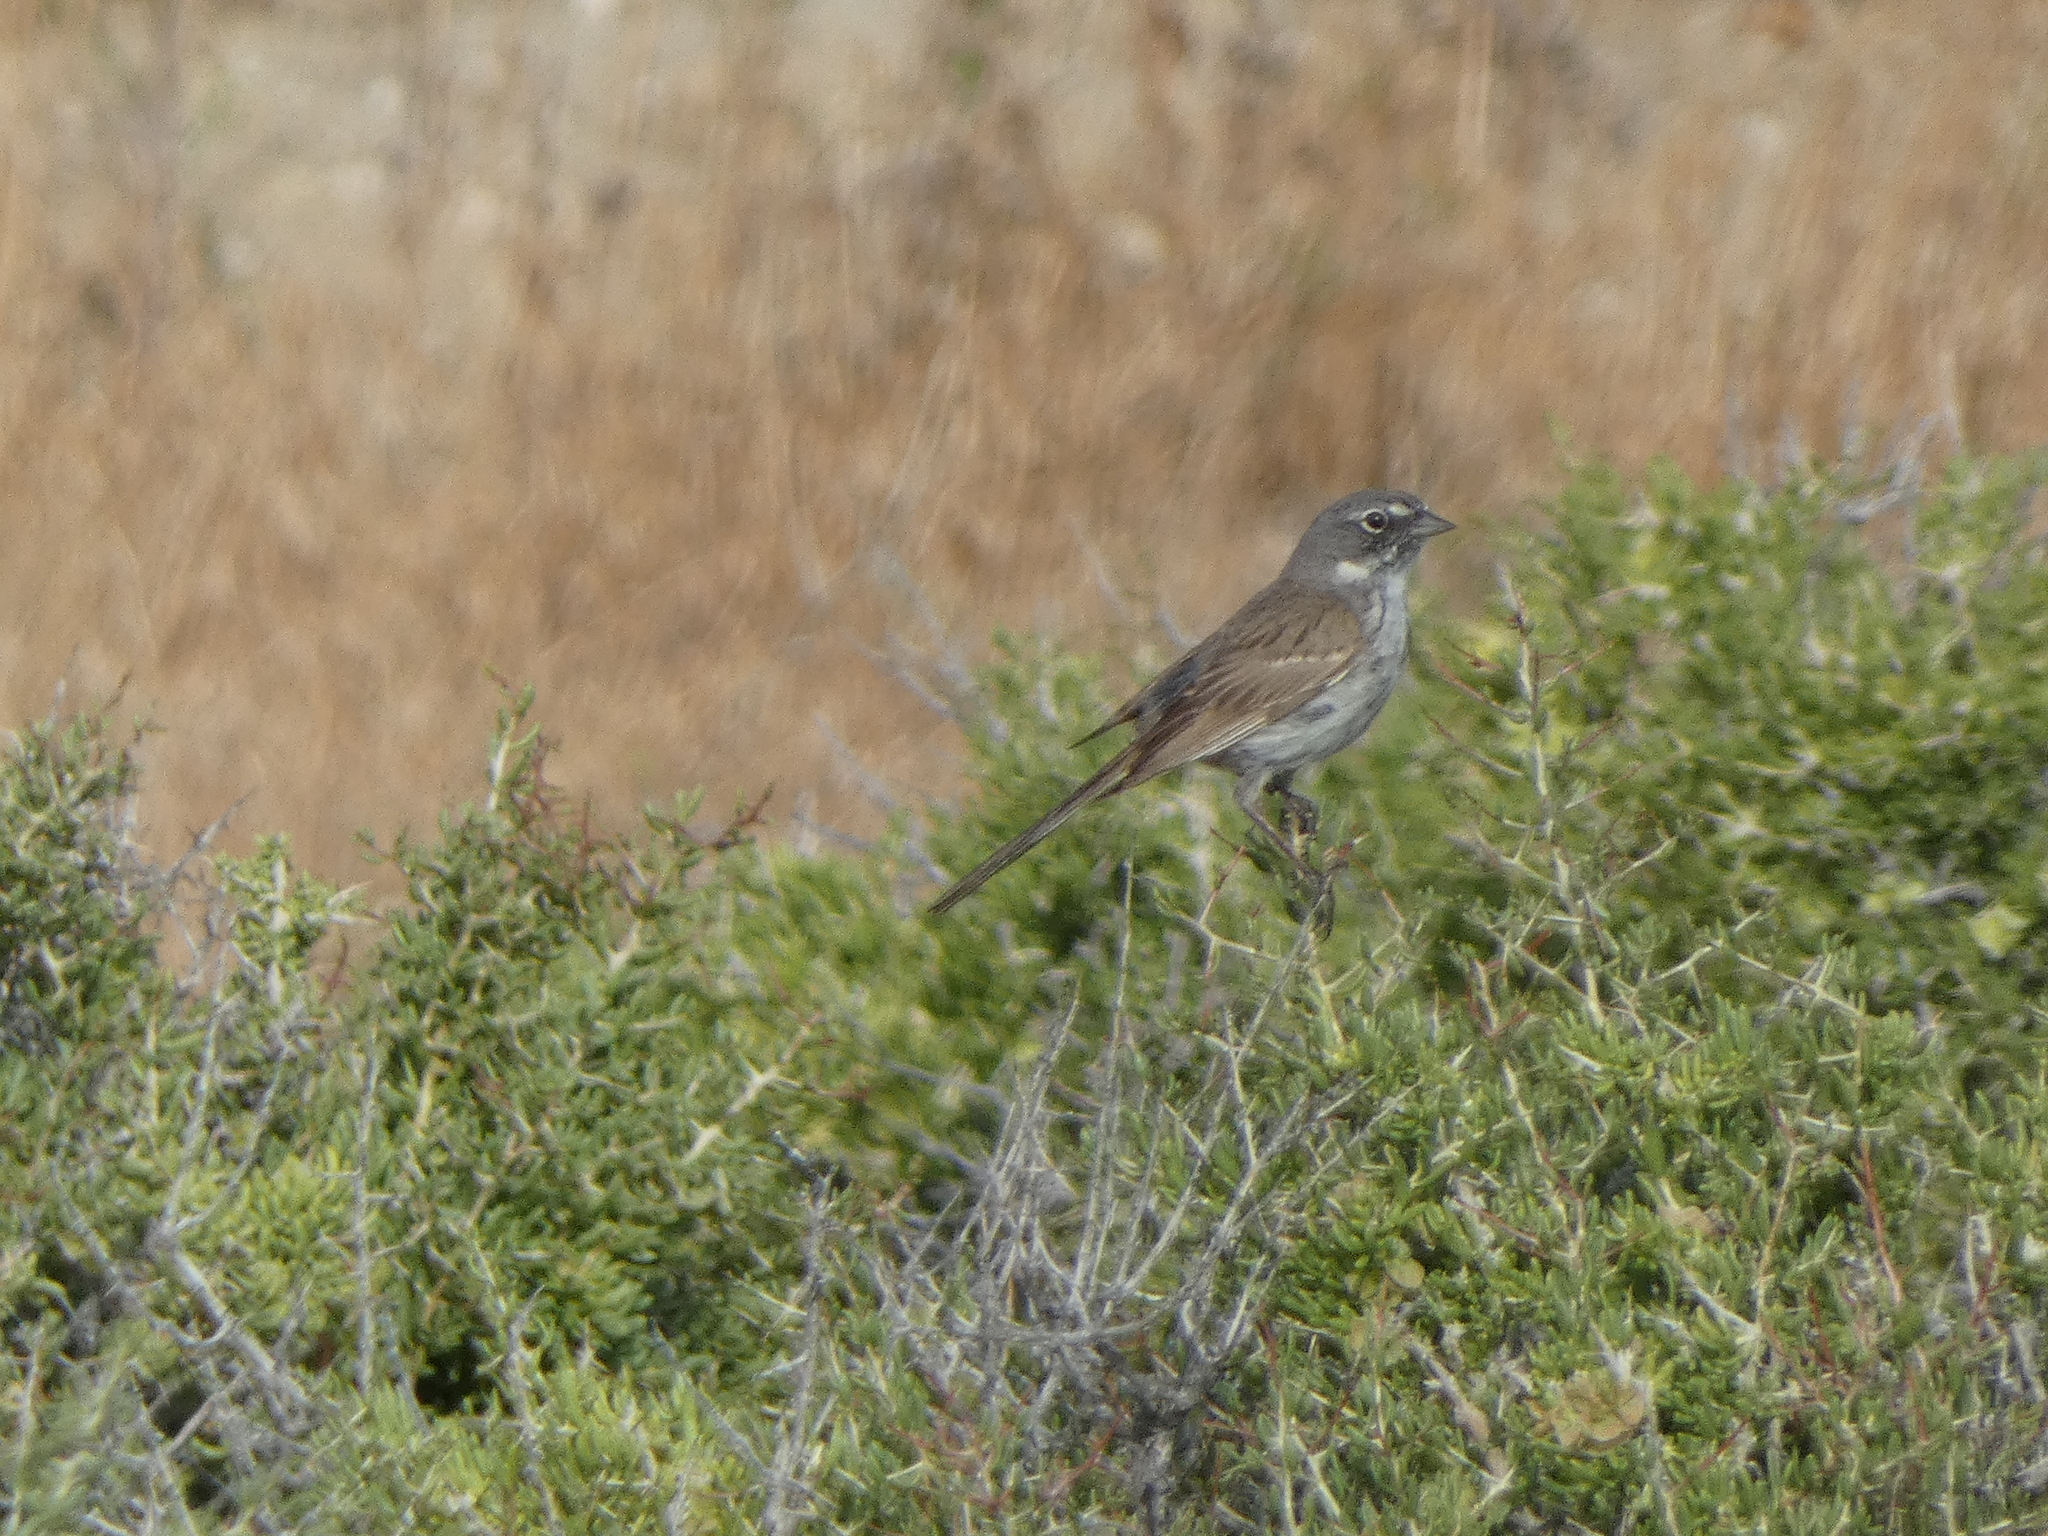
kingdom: Animalia
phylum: Chordata
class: Aves
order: Passeriformes
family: Passerellidae
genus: Artemisiospiza
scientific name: Artemisiospiza nevadensis
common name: Sagebrush sparrow
